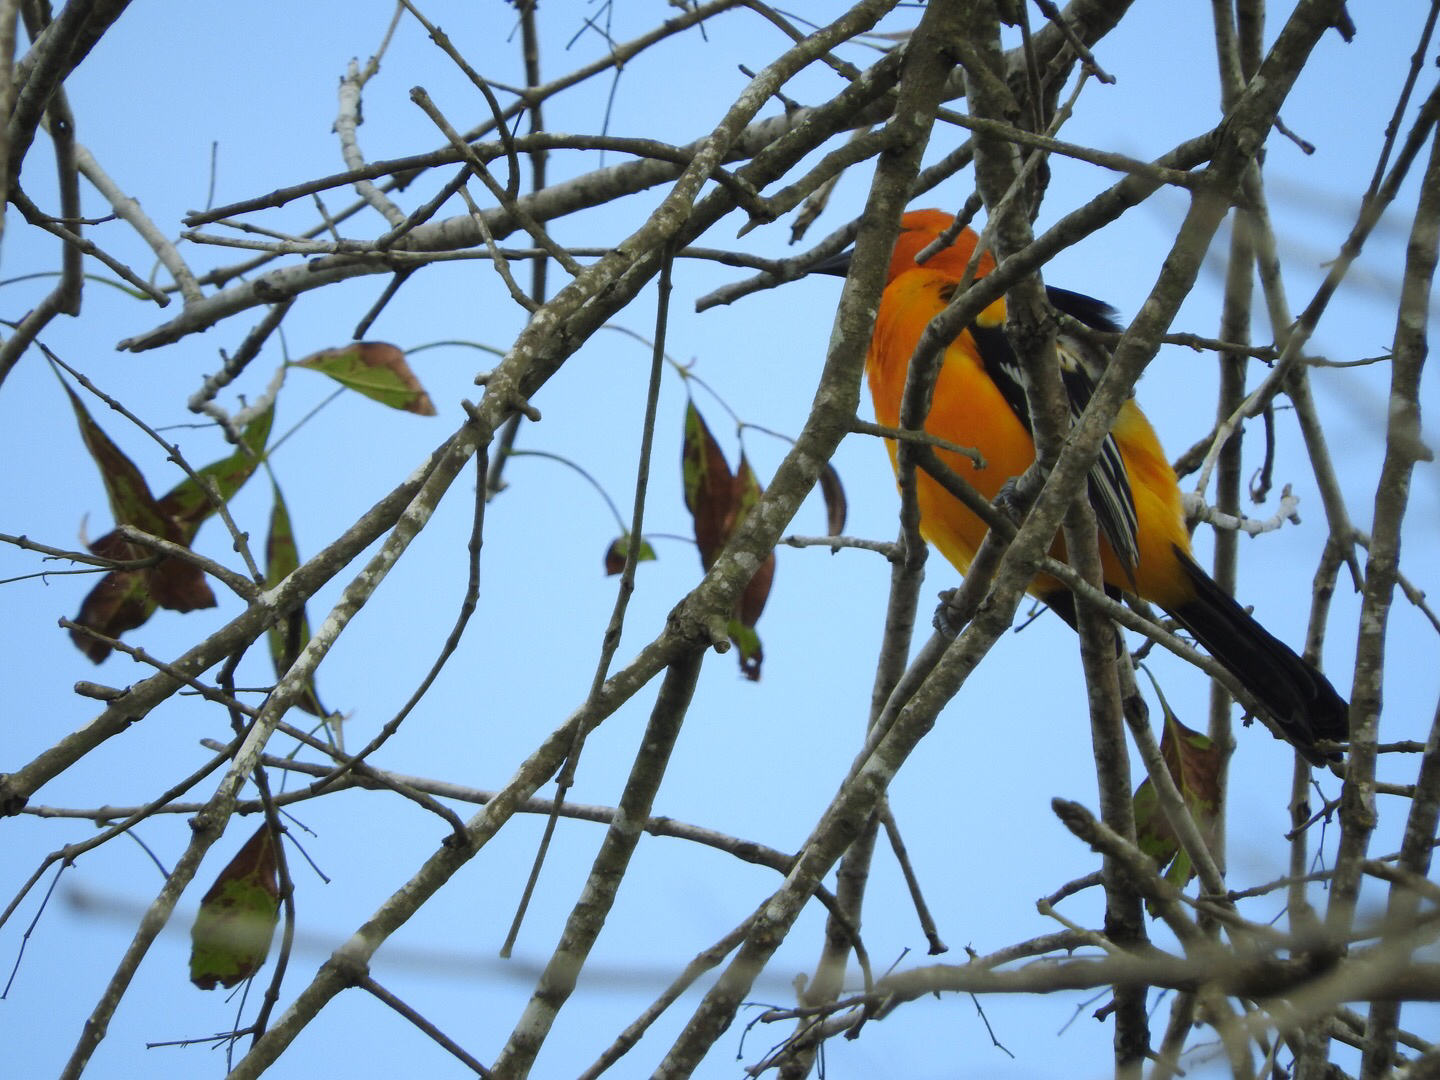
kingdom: Animalia
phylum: Chordata
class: Aves
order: Passeriformes
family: Icteridae
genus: Icterus
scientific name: Icterus gularis
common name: Altamira oriole
